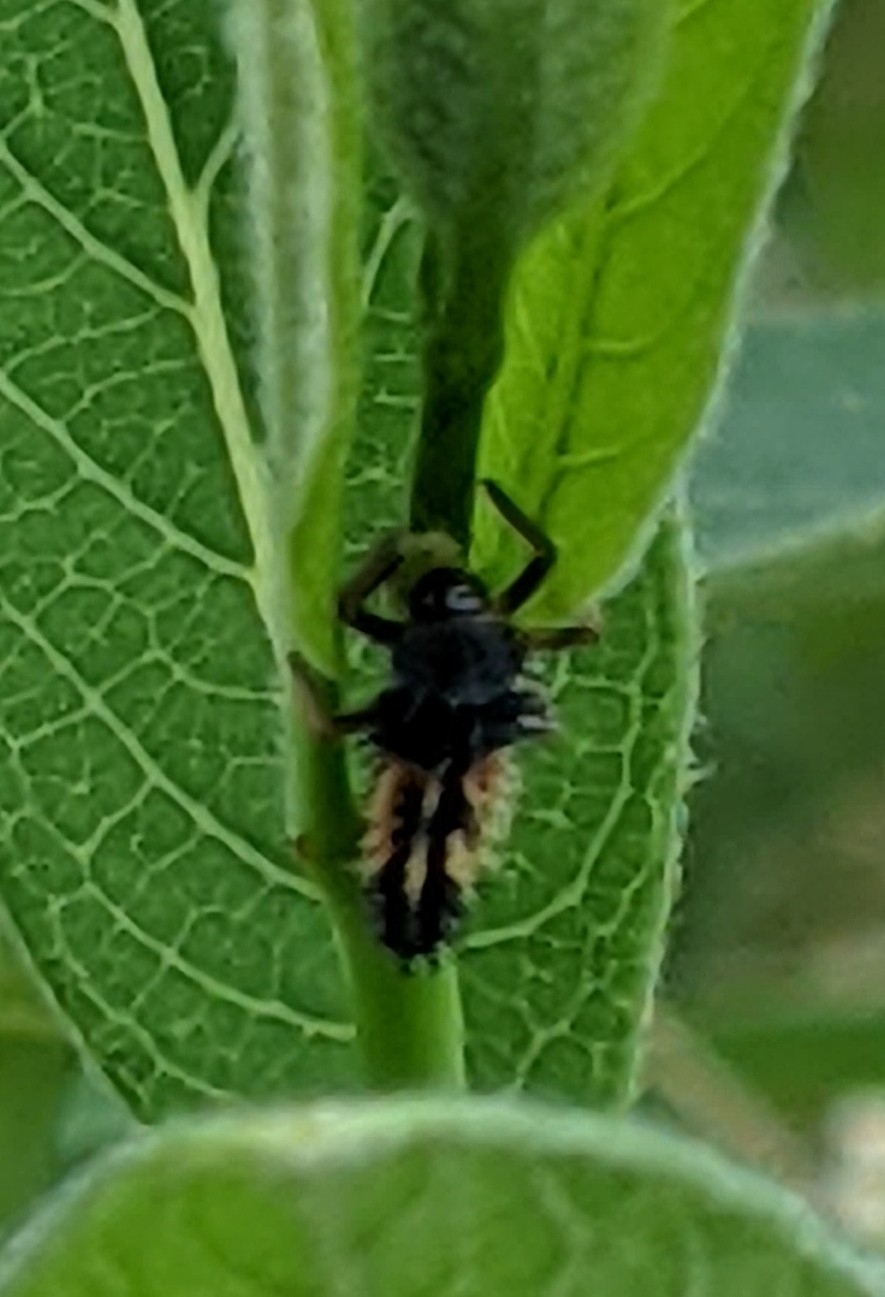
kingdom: Animalia
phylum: Arthropoda
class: Insecta
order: Coleoptera
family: Coccinellidae
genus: Harmonia
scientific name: Harmonia axyridis
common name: Harlequin ladybird
